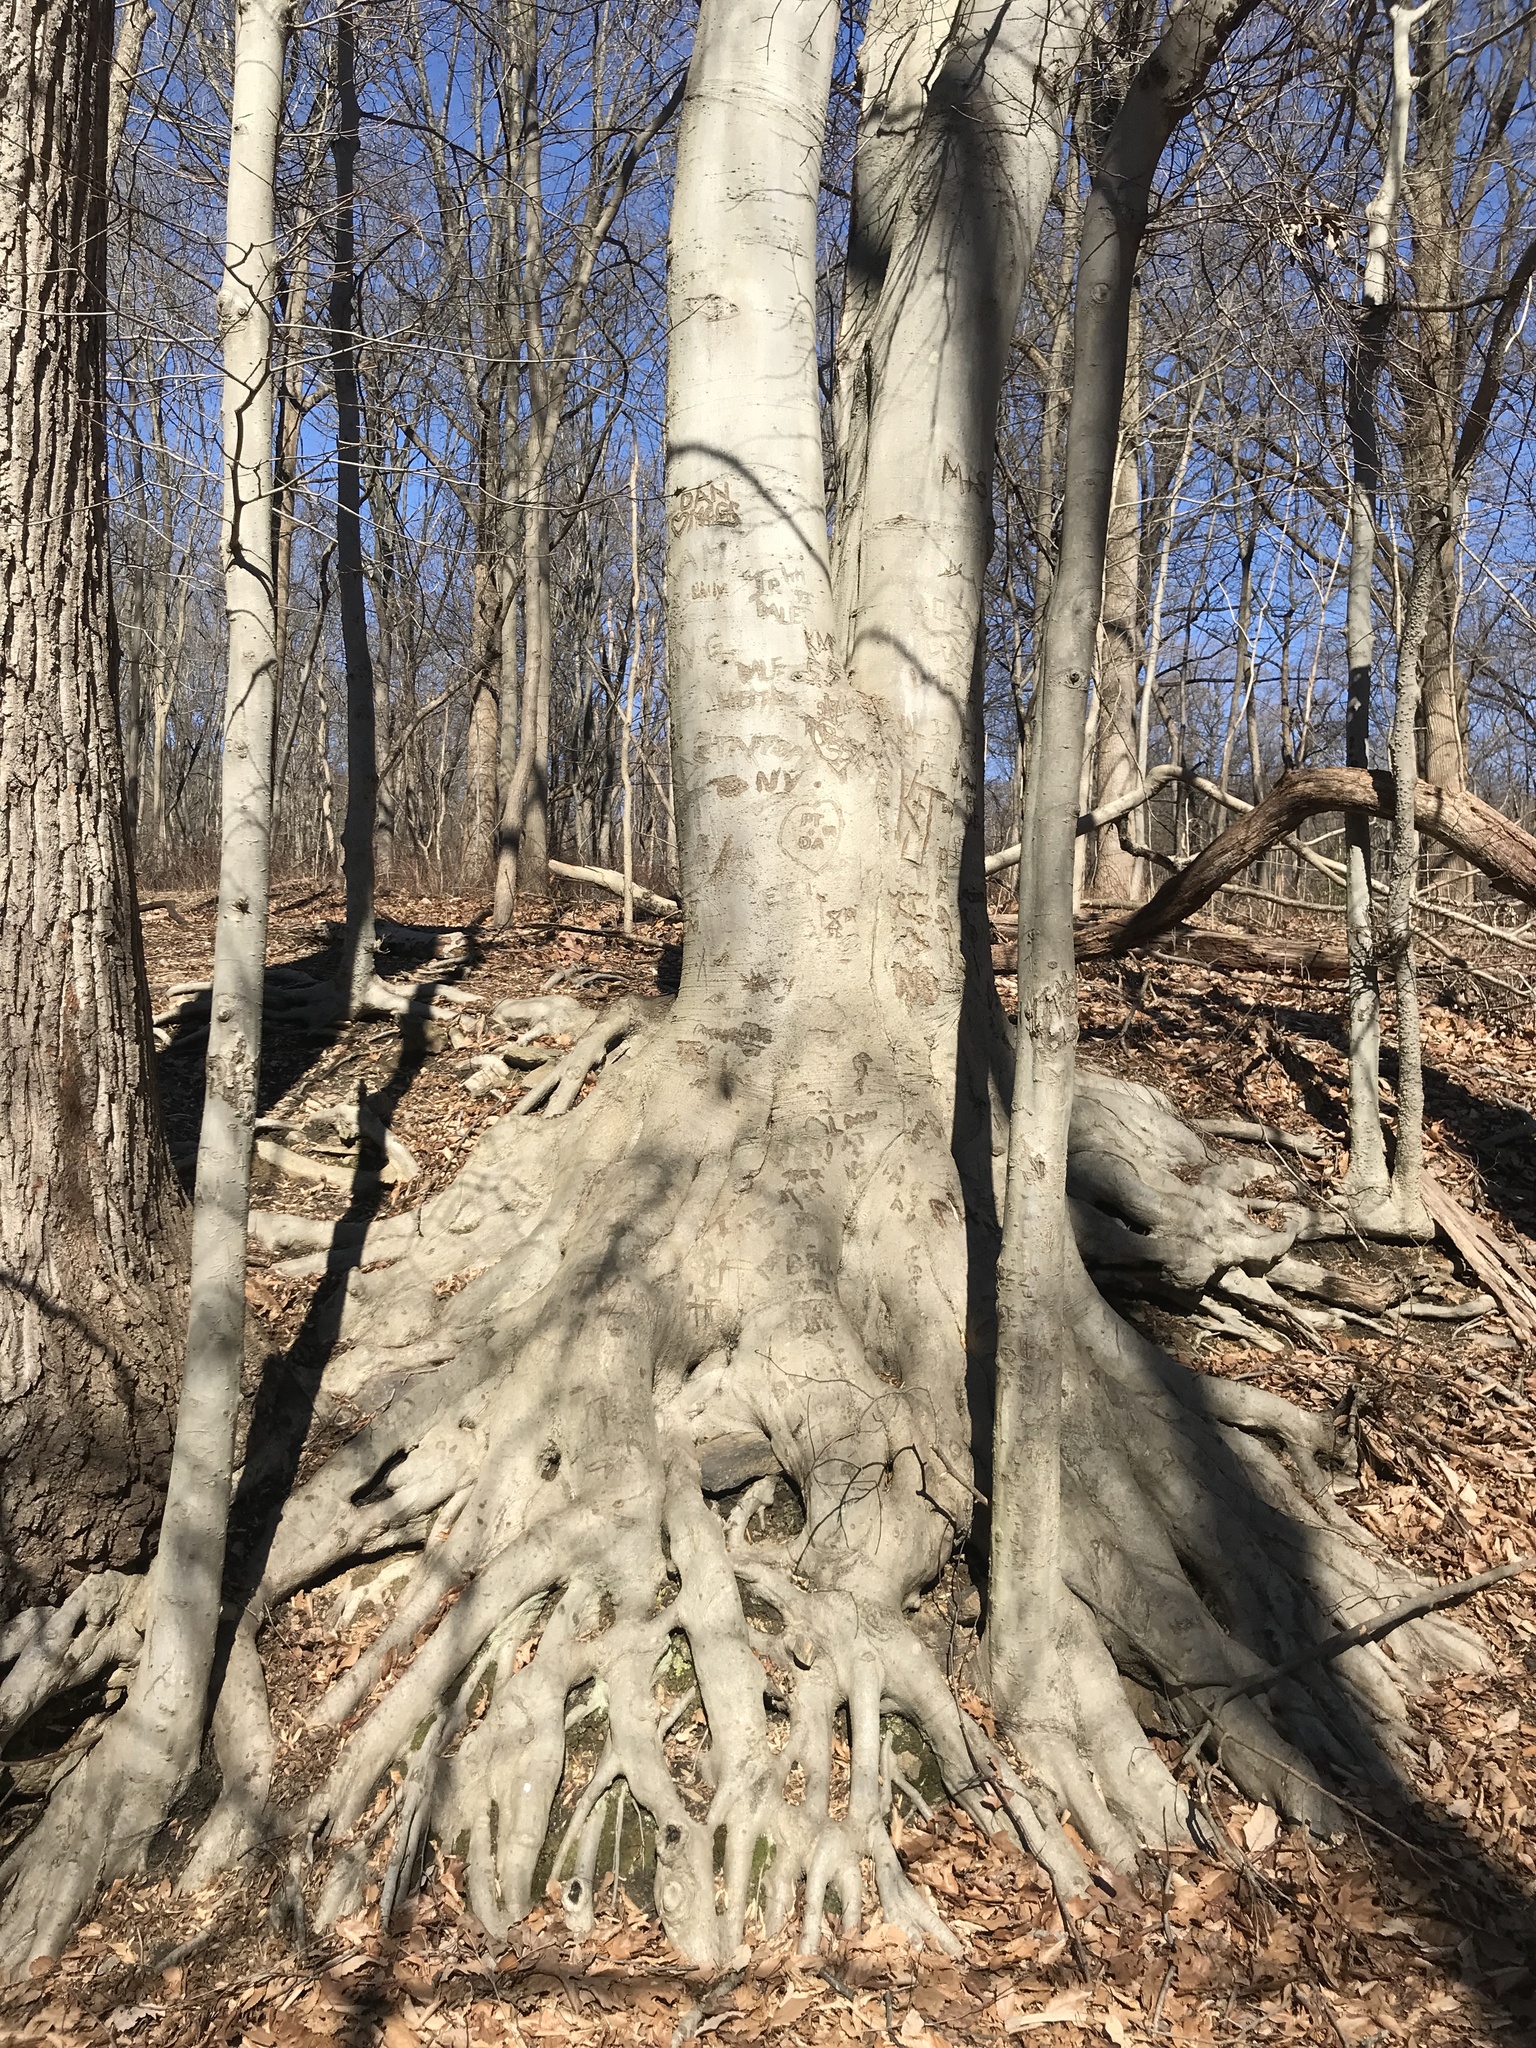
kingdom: Plantae
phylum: Tracheophyta
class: Magnoliopsida
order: Fagales
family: Fagaceae
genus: Fagus
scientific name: Fagus grandifolia
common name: American beech
